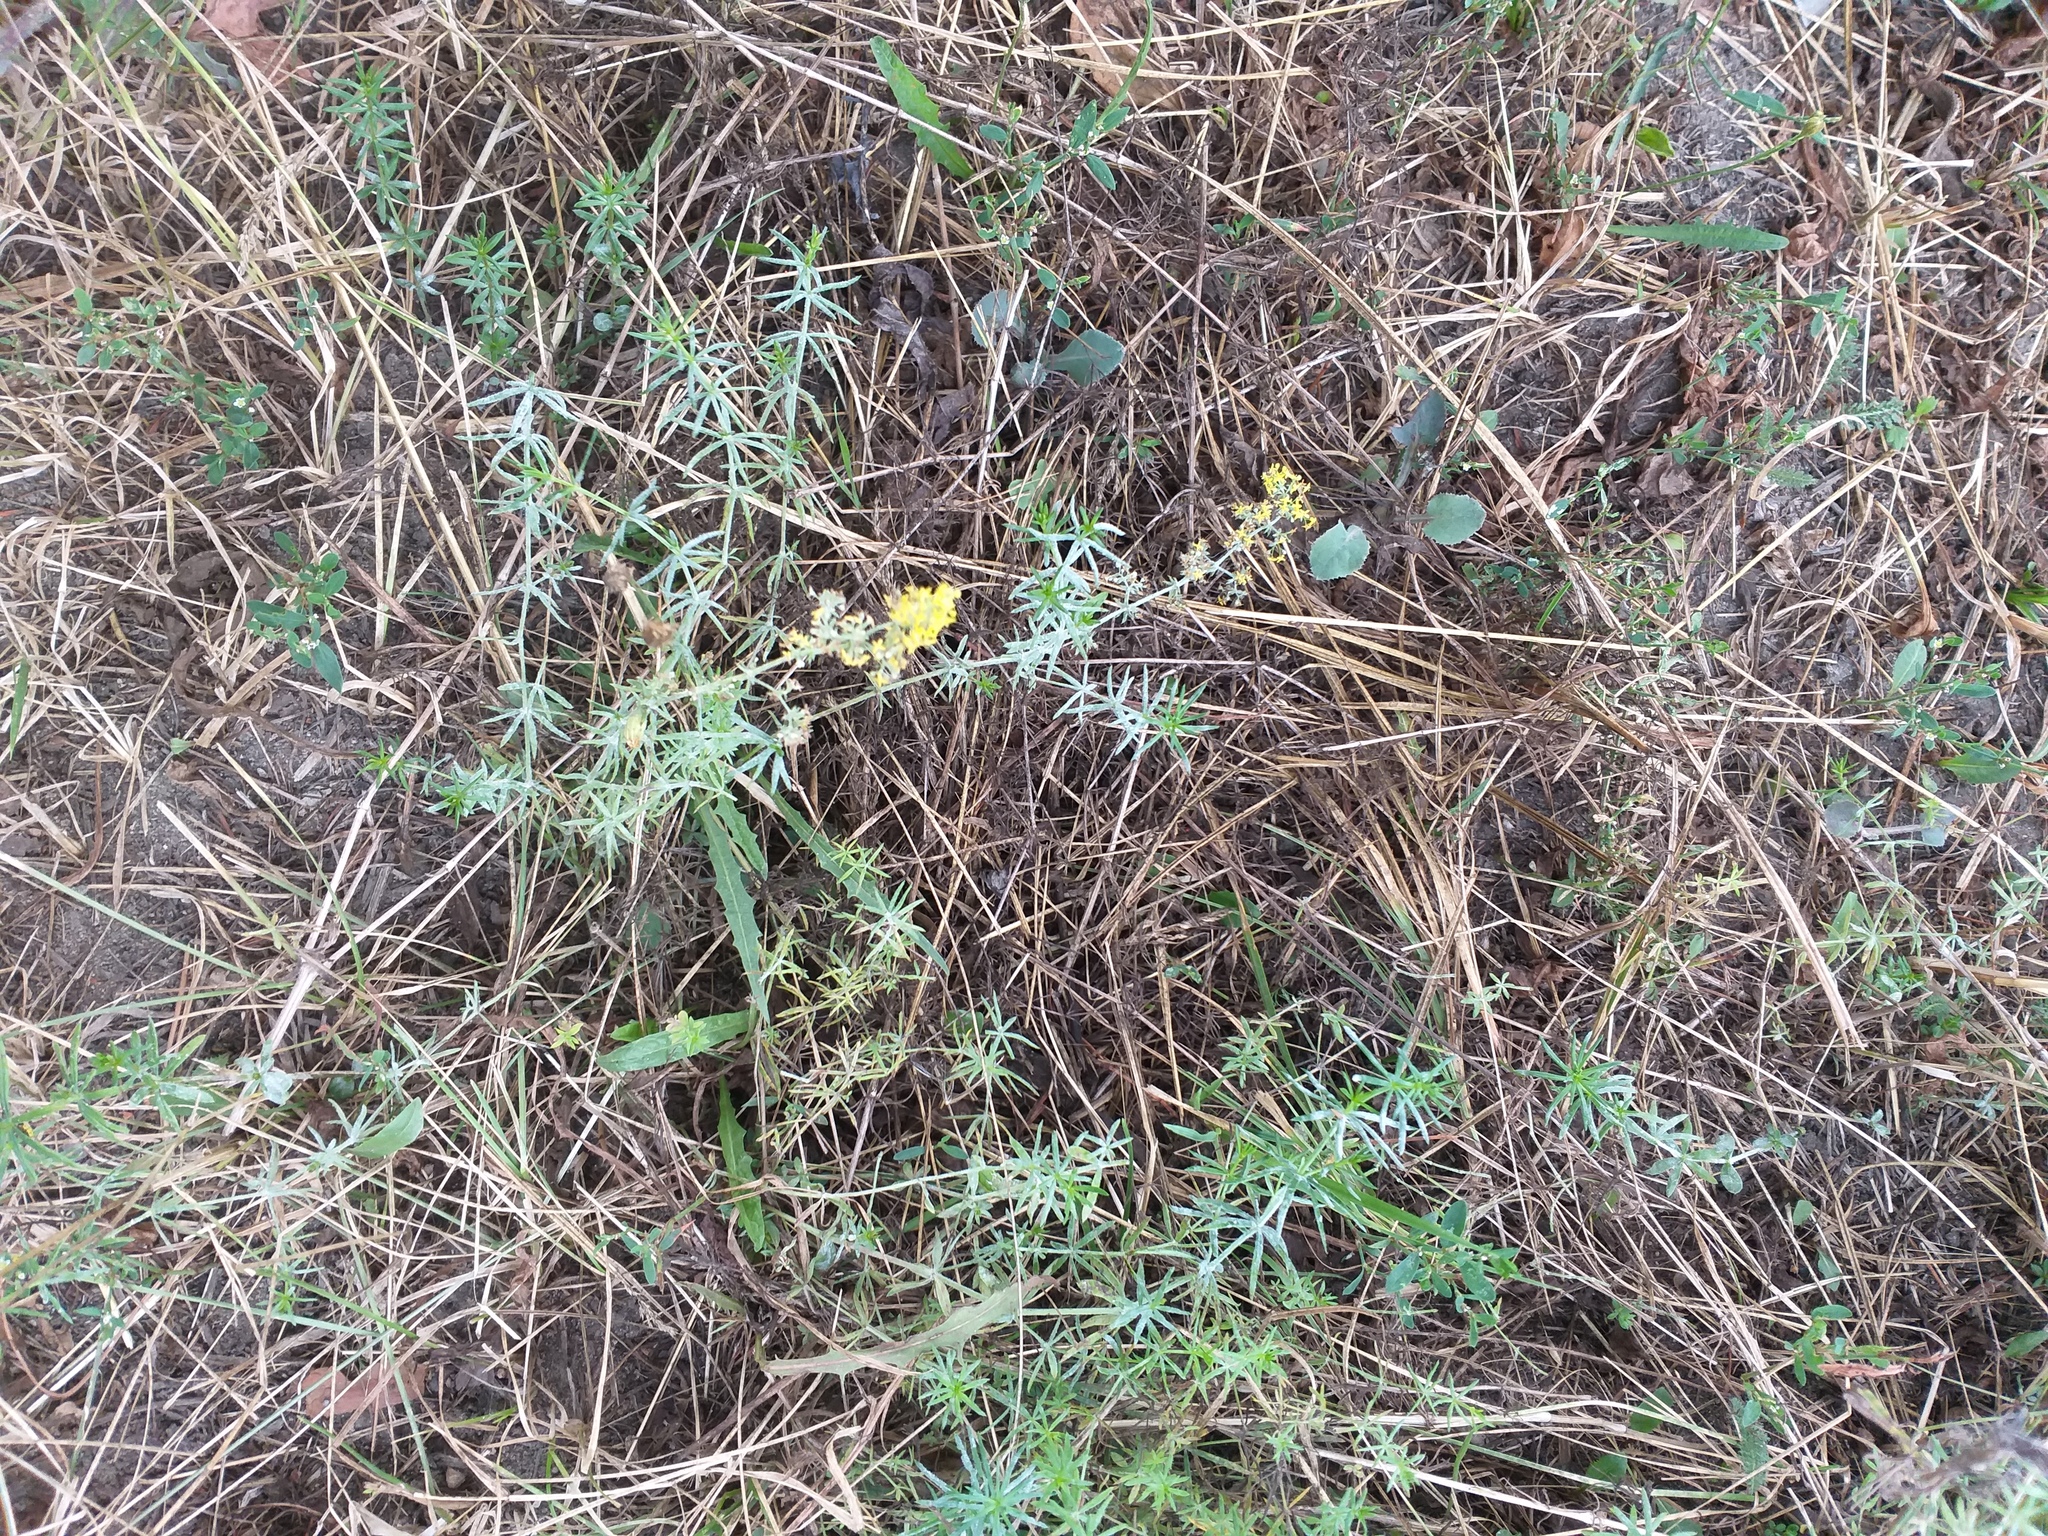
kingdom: Plantae
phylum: Tracheophyta
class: Magnoliopsida
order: Gentianales
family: Rubiaceae
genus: Galium
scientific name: Galium verum
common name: Lady's bedstraw
